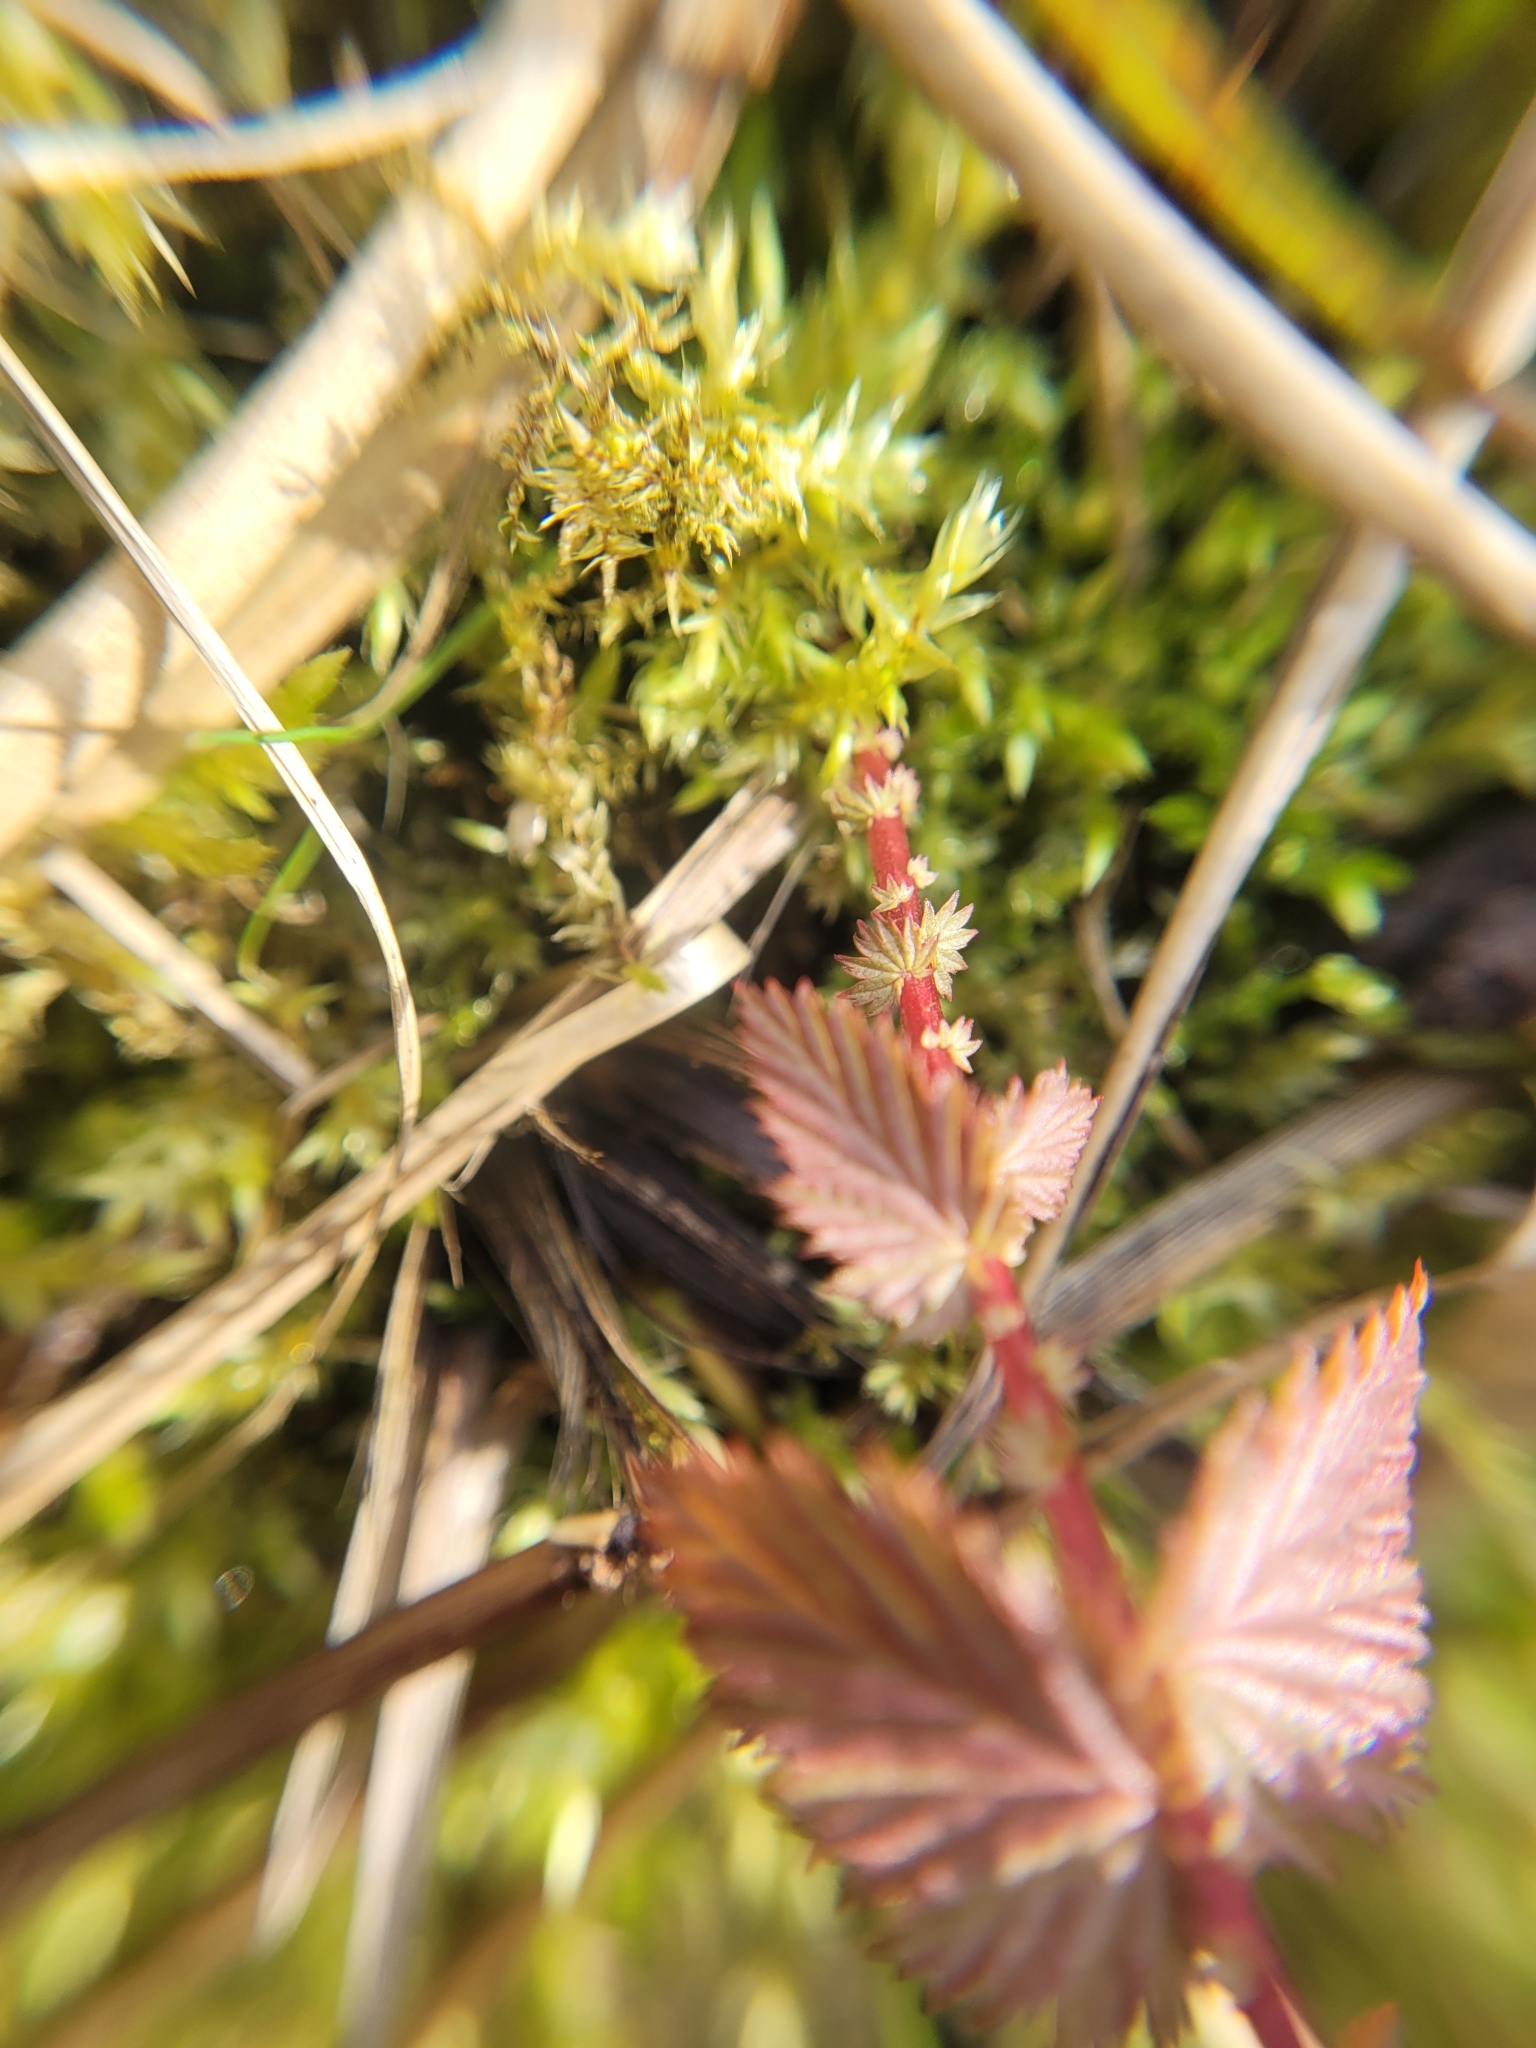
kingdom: Plantae
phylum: Tracheophyta
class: Magnoliopsida
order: Rosales
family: Rosaceae
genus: Filipendula
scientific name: Filipendula ulmaria
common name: Meadowsweet
